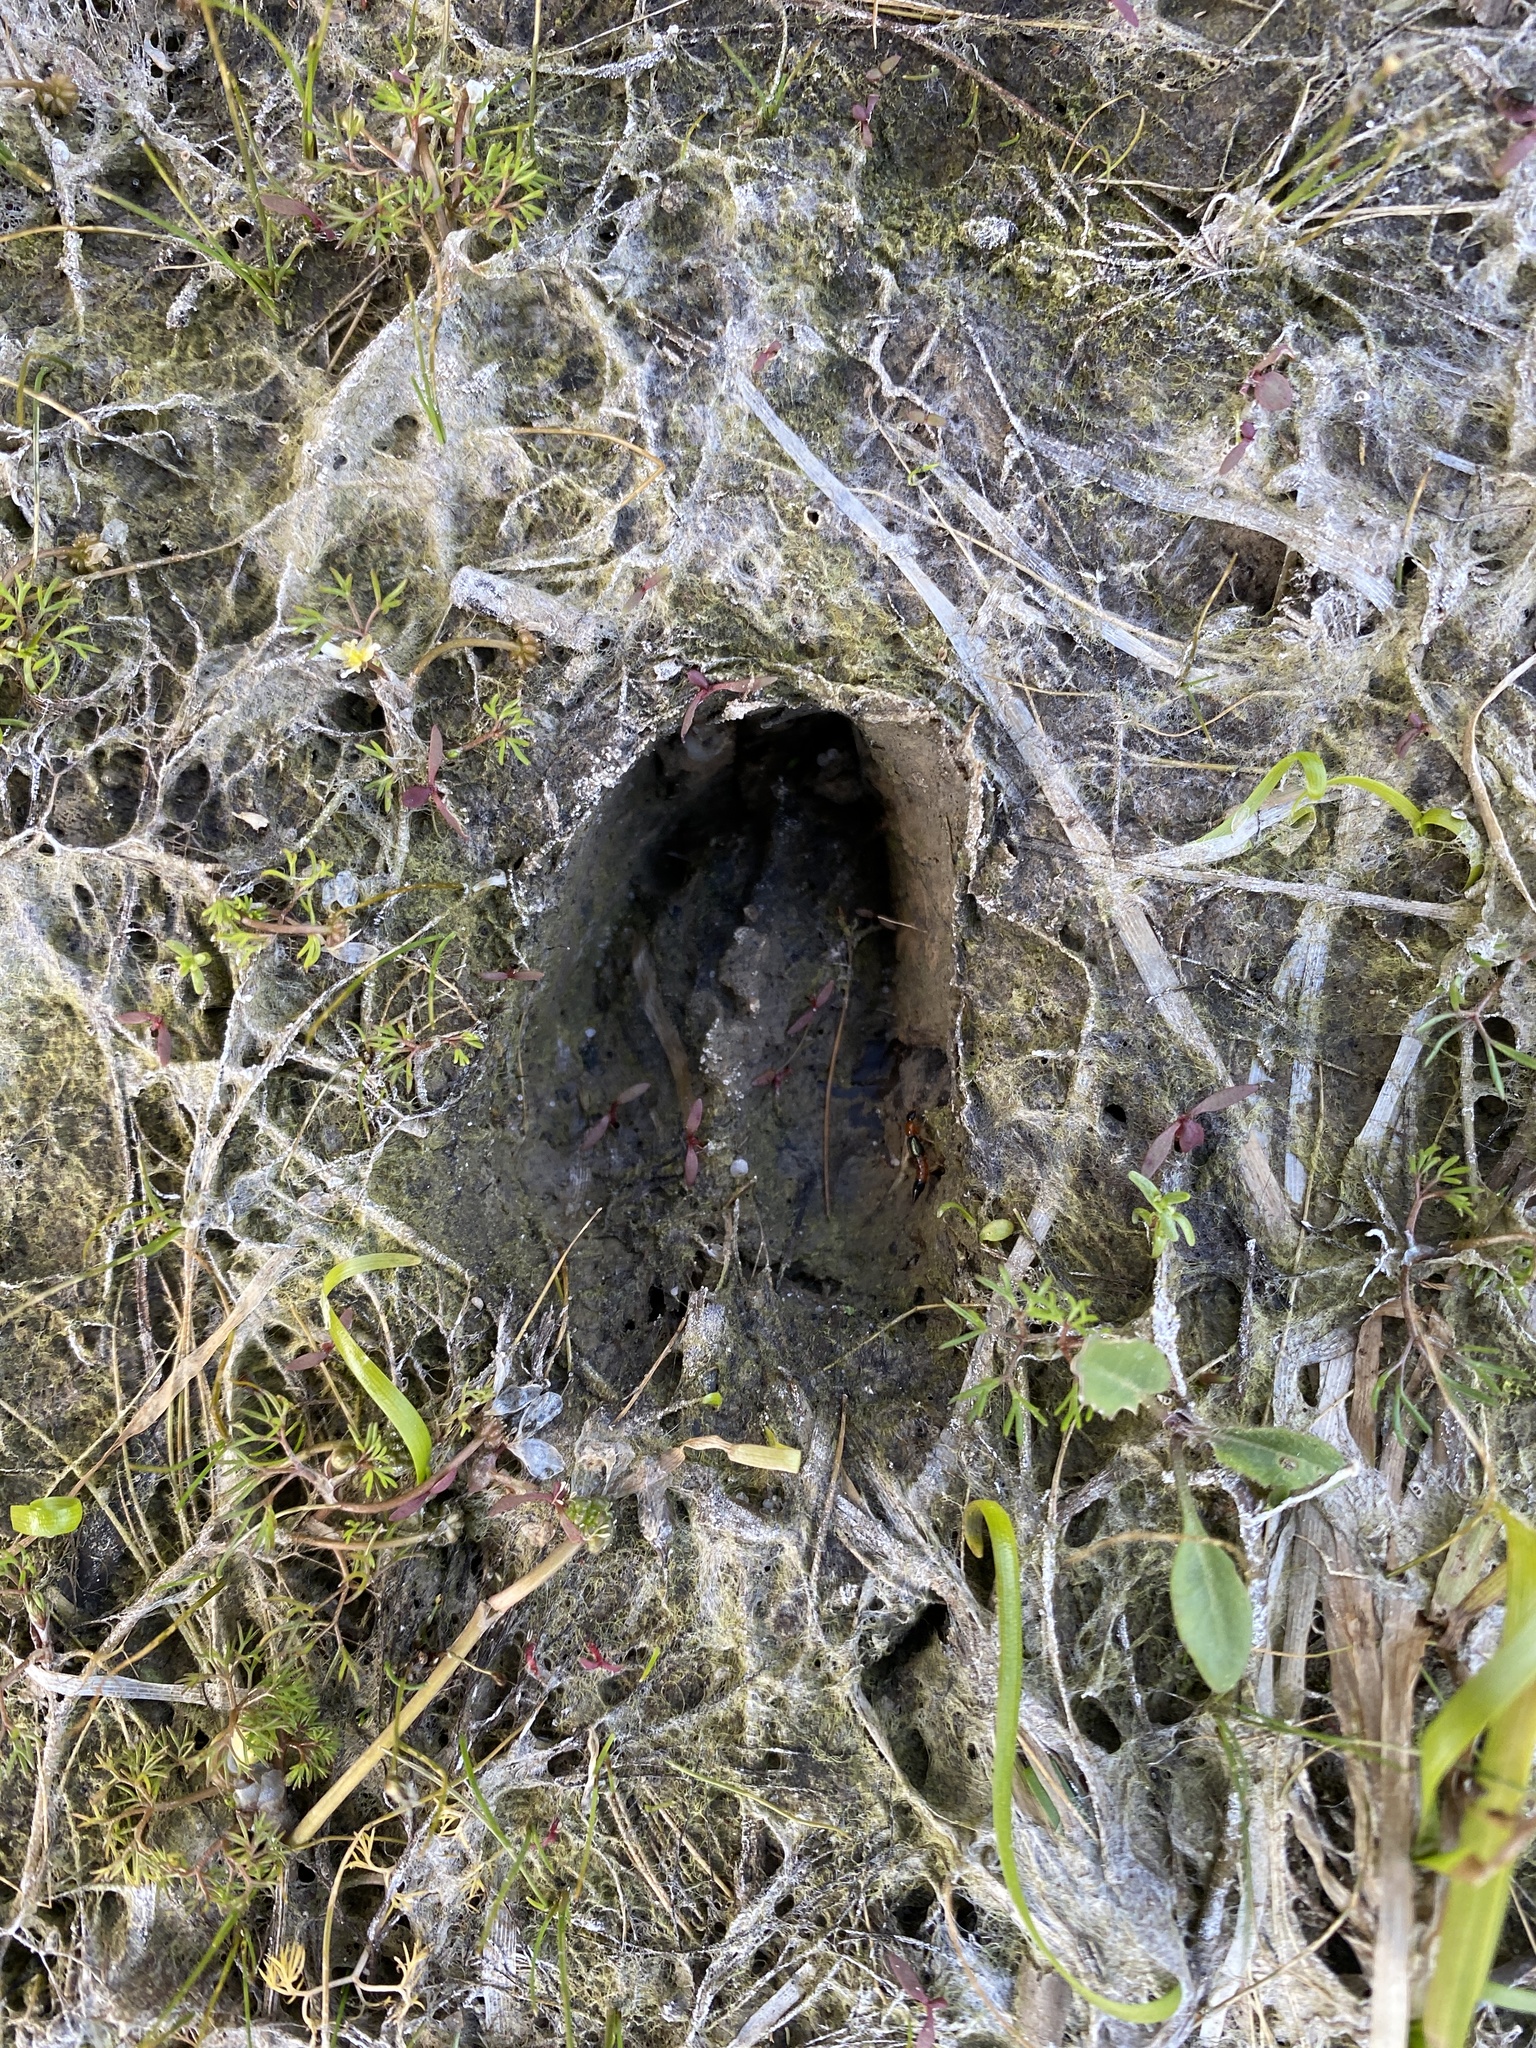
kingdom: Animalia
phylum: Chordata
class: Mammalia
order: Artiodactyla
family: Cervidae
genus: Capreolus
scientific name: Capreolus capreolus
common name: Western roe deer
